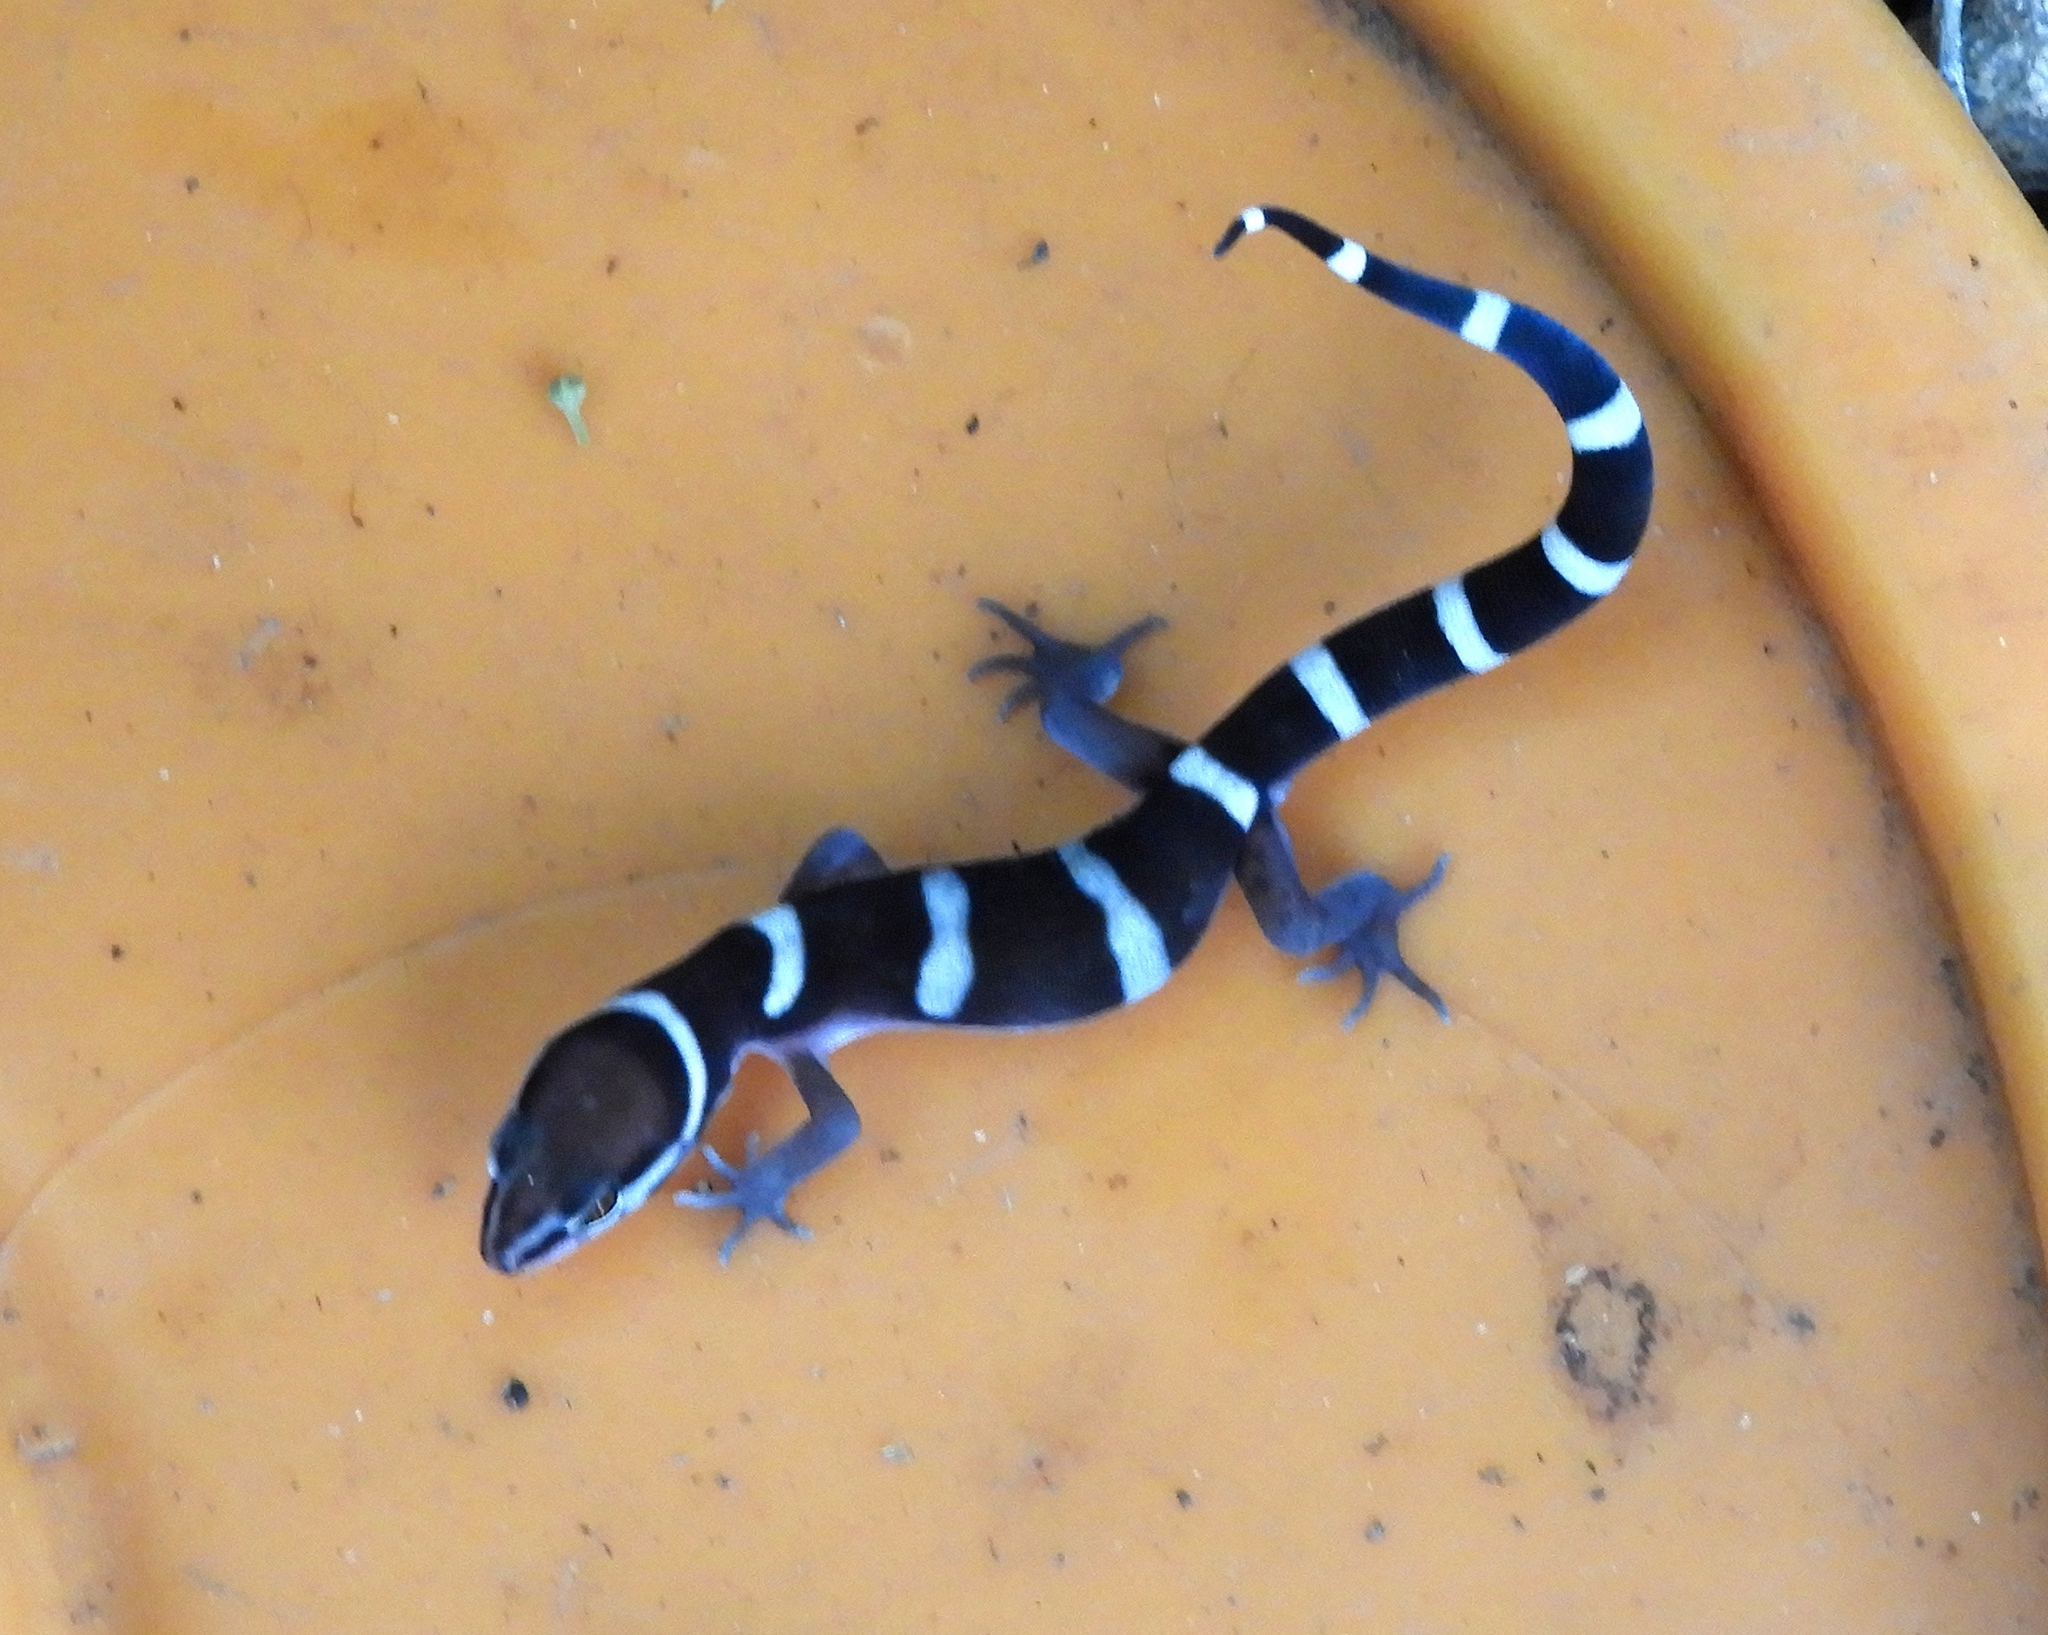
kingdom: Animalia
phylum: Chordata
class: Squamata
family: Eublepharidae
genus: Coleonyx
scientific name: Coleonyx fasciatus
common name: Black banded gecko
